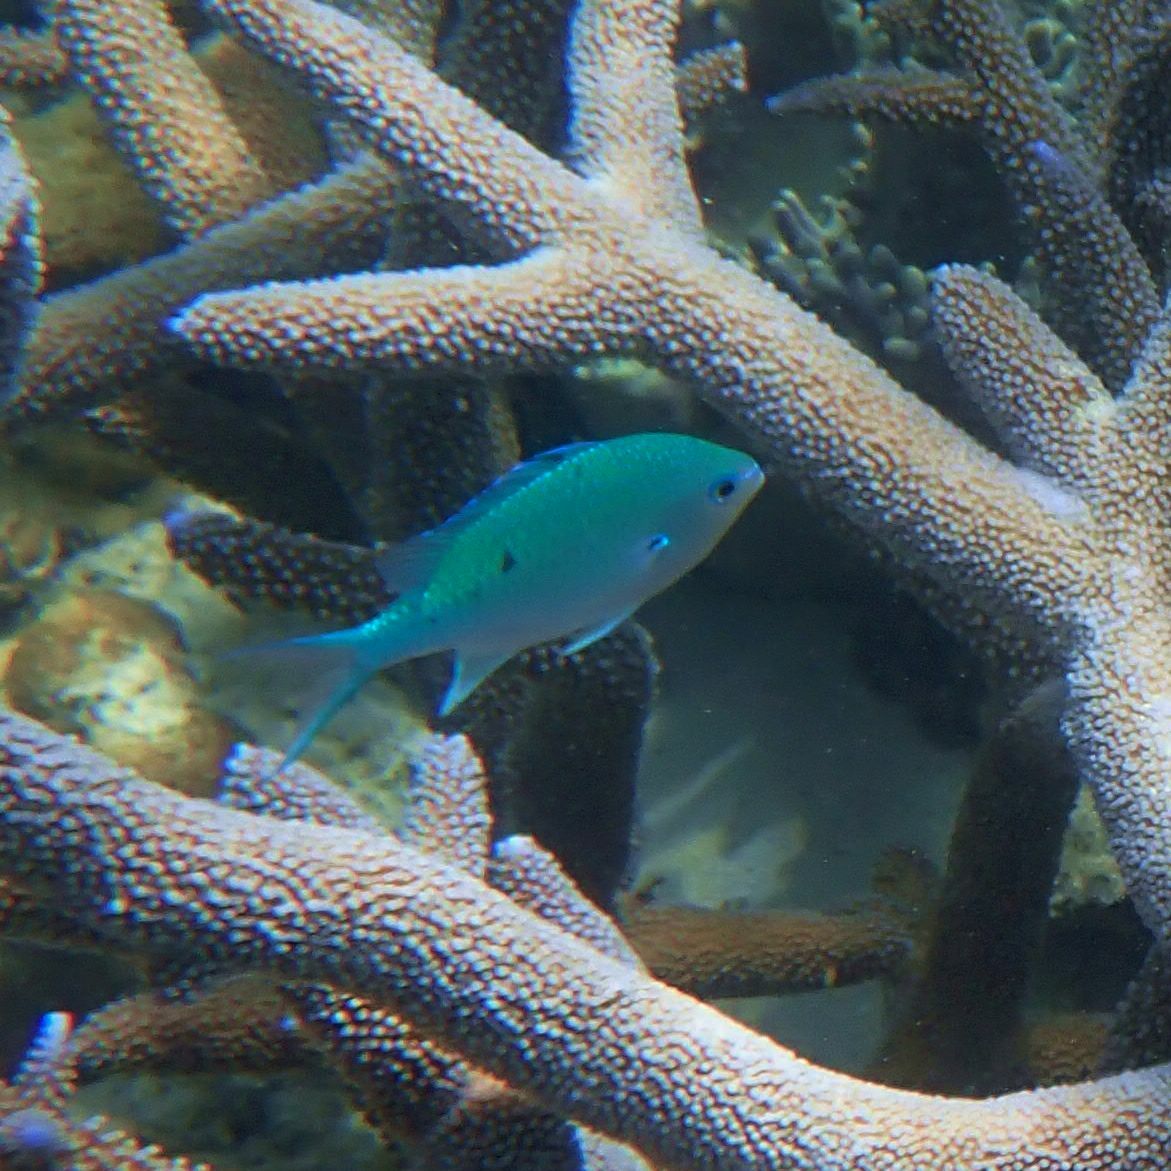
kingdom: Animalia
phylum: Chordata
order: Perciformes
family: Pomacentridae
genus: Chromis
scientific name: Chromis atripectoralis
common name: Black-axil chromis
